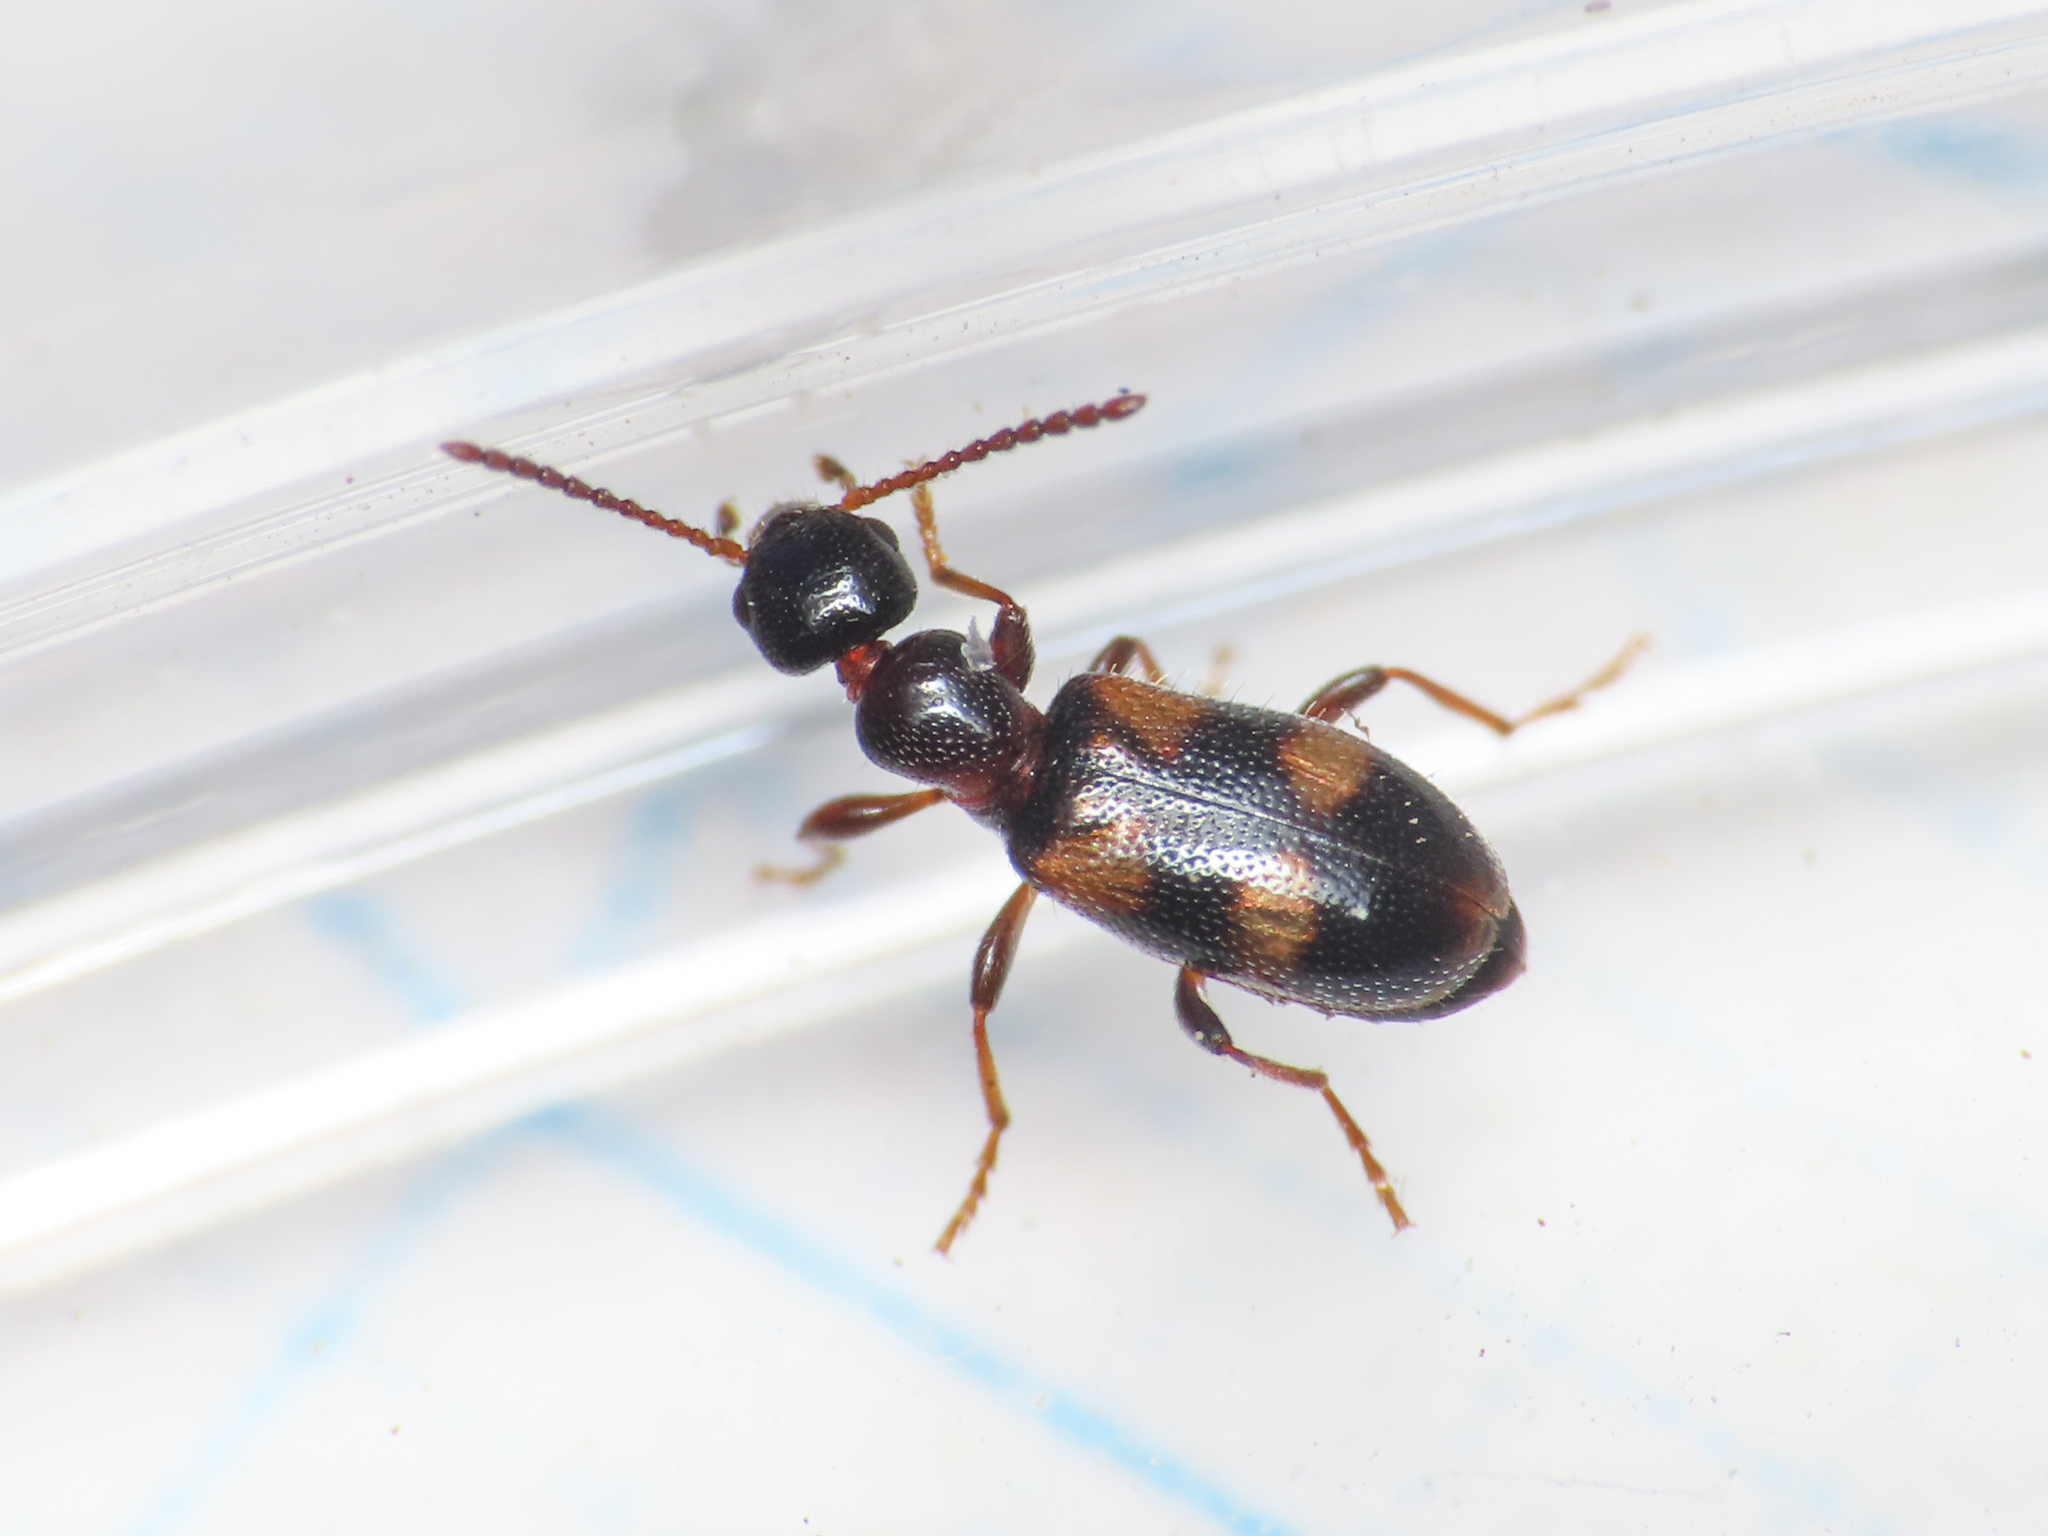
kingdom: Animalia
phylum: Arthropoda
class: Insecta
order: Coleoptera
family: Anthicidae
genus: Notoxus
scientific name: Notoxus bifasciatus
